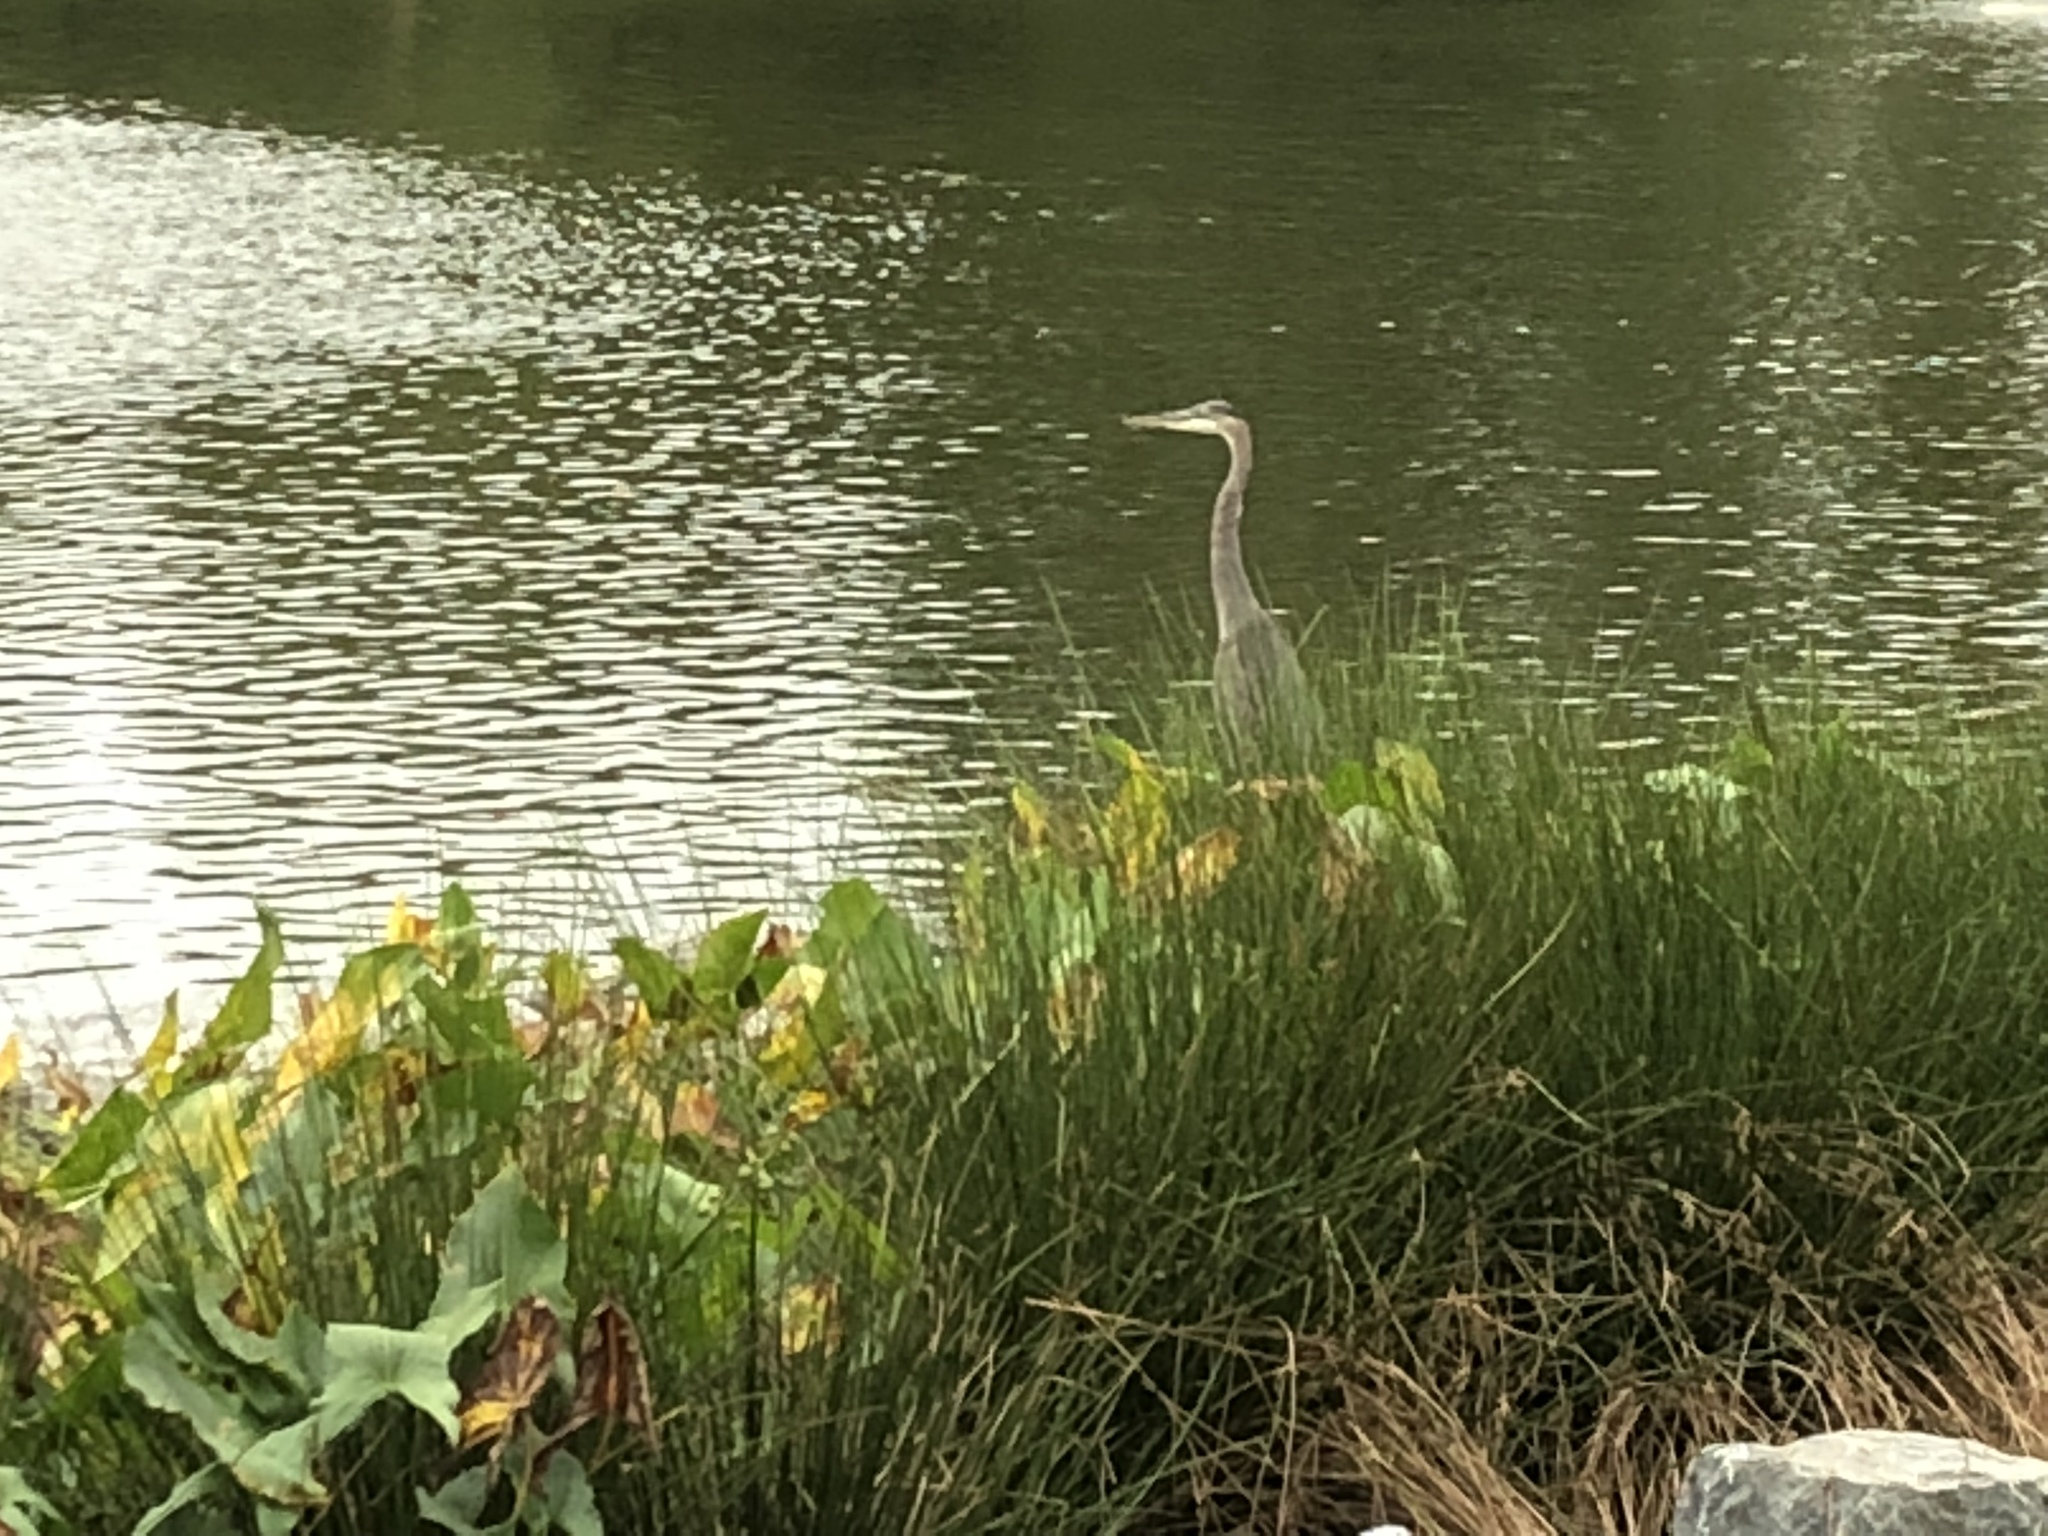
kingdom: Animalia
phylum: Chordata
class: Aves
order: Pelecaniformes
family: Ardeidae
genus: Ardea
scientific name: Ardea herodias
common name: Great blue heron
